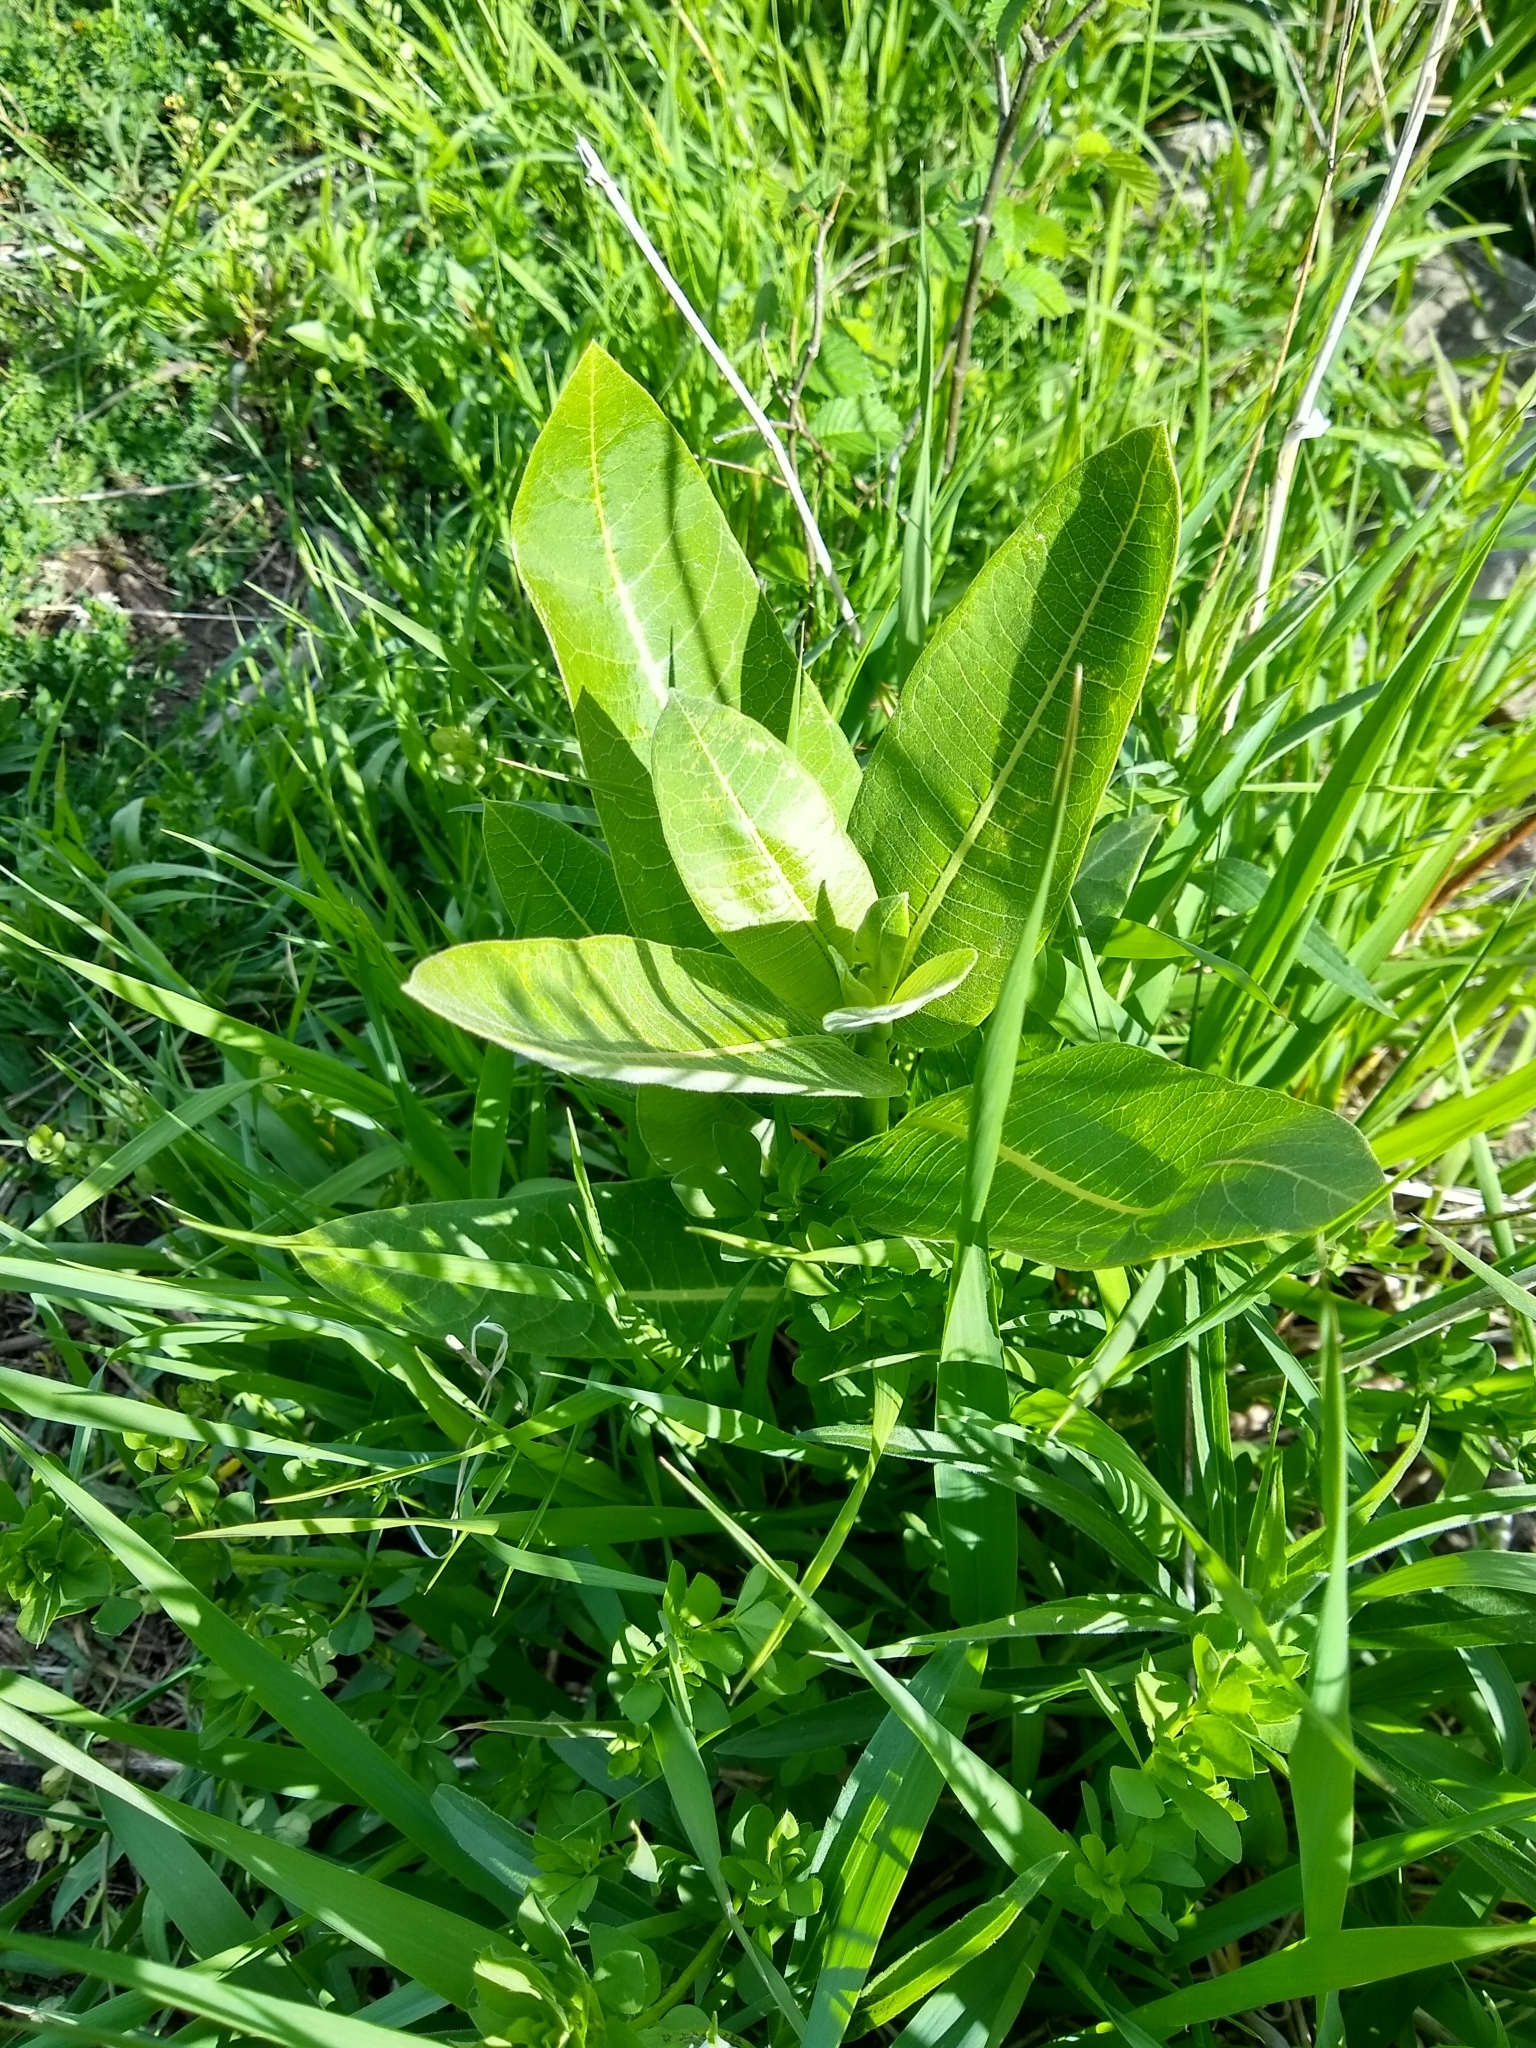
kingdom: Plantae
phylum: Tracheophyta
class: Magnoliopsida
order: Gentianales
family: Apocynaceae
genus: Asclepias
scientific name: Asclepias syriaca
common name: Common milkweed
